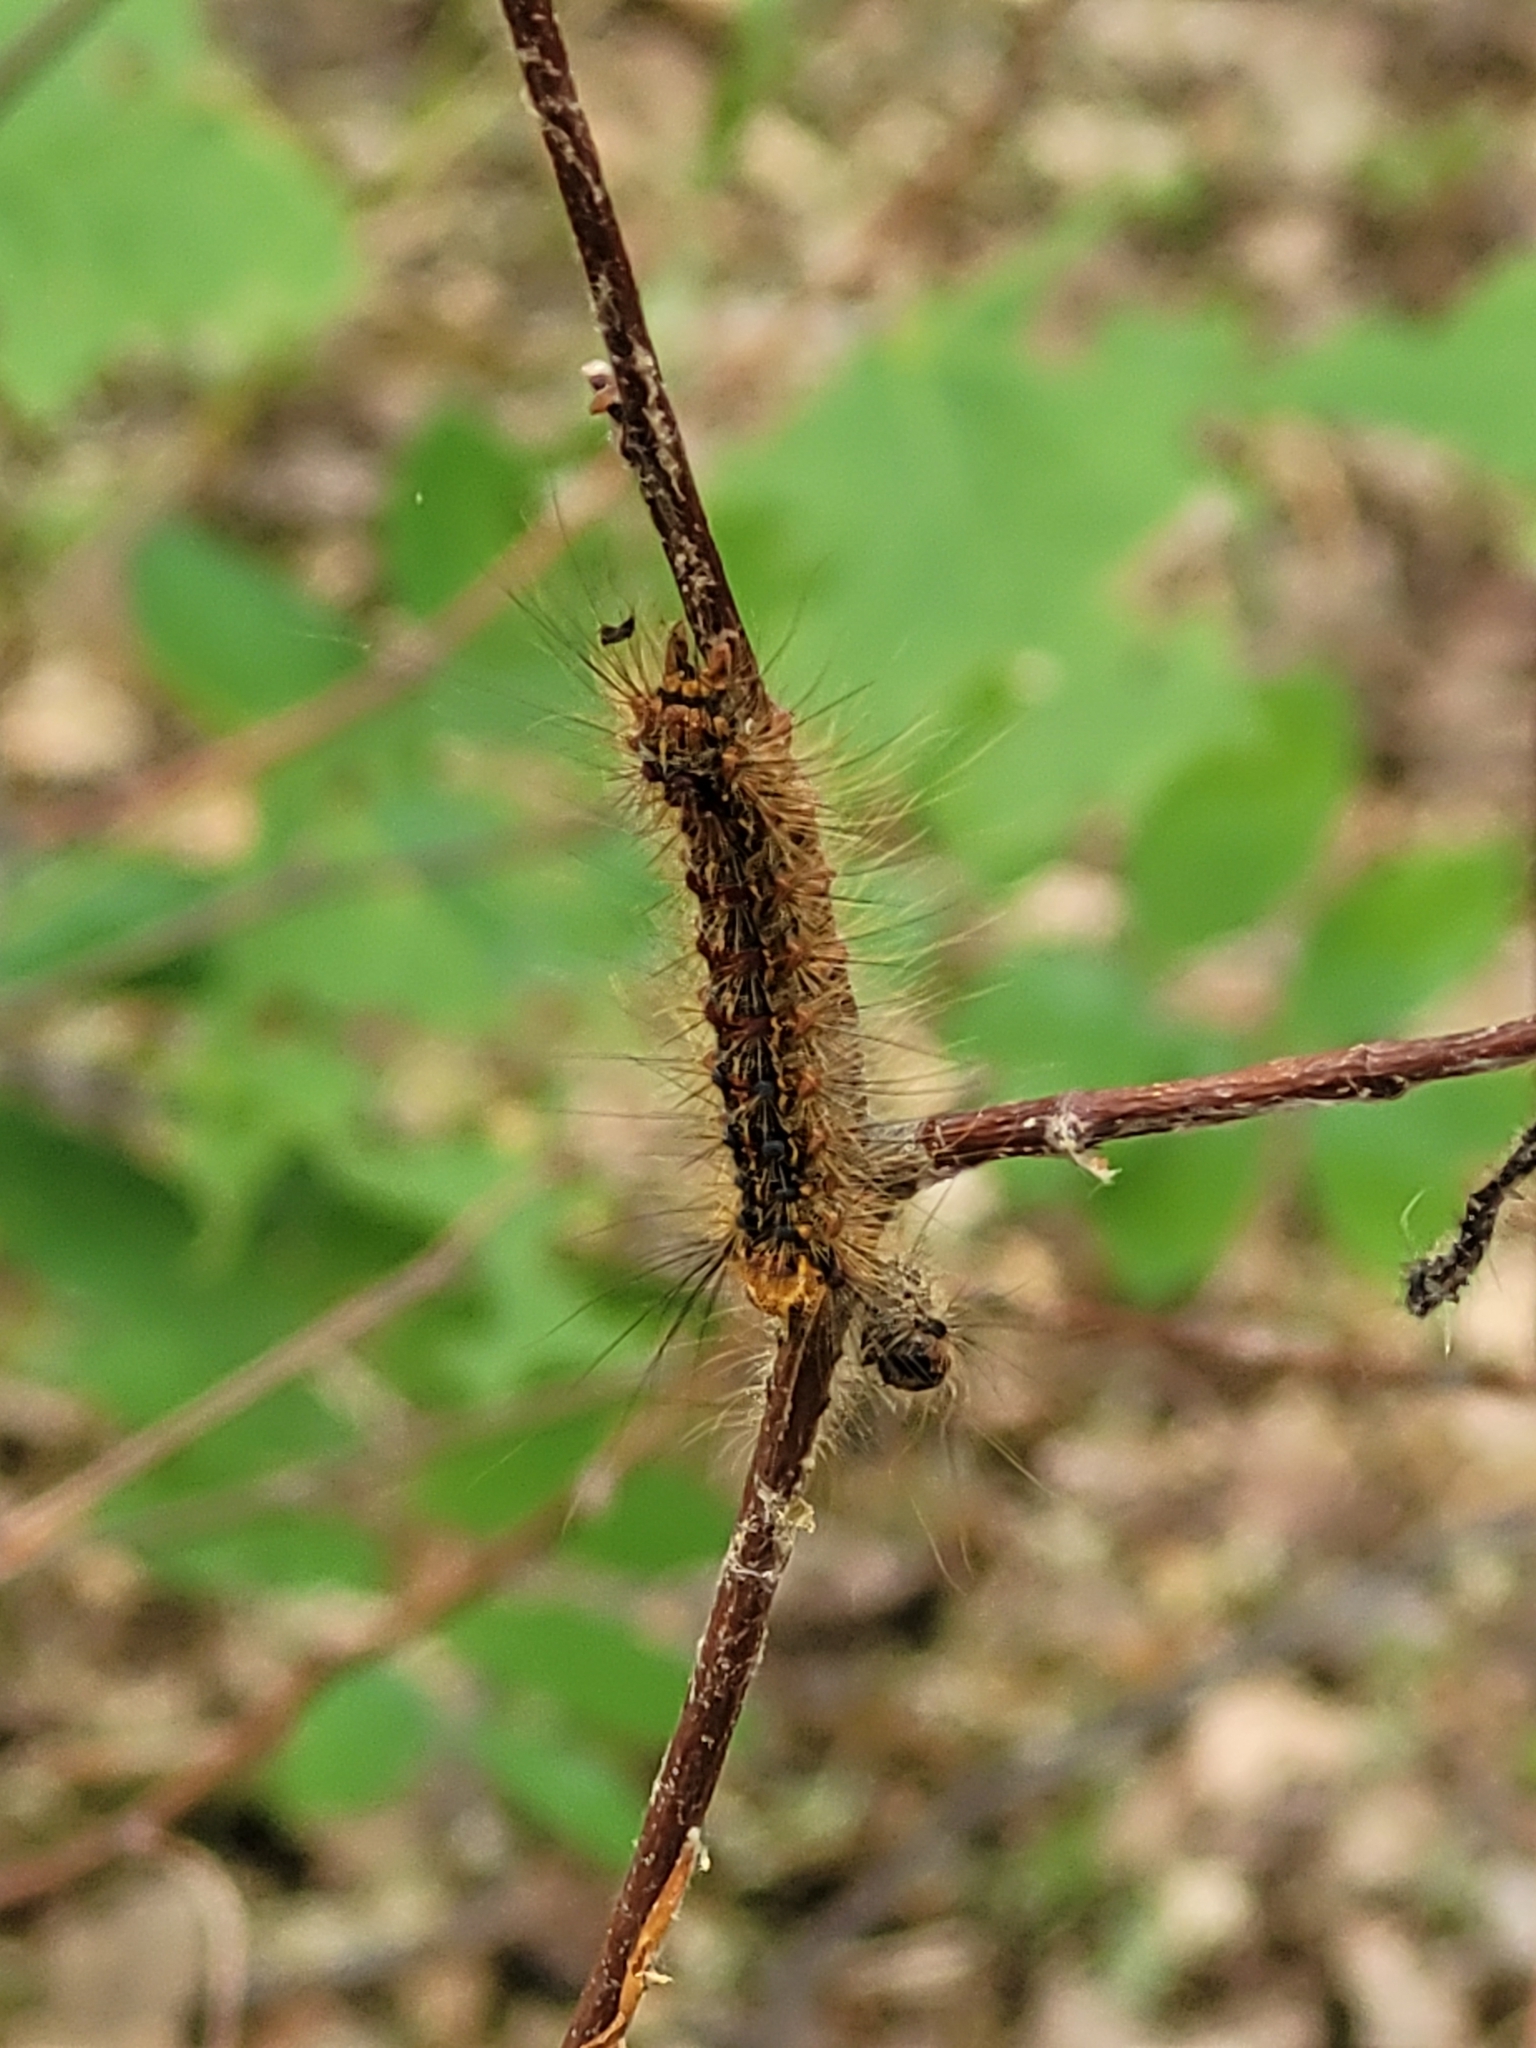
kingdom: Animalia
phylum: Arthropoda
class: Insecta
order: Lepidoptera
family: Erebidae
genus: Lymantria
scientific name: Lymantria dispar
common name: Gypsy moth
